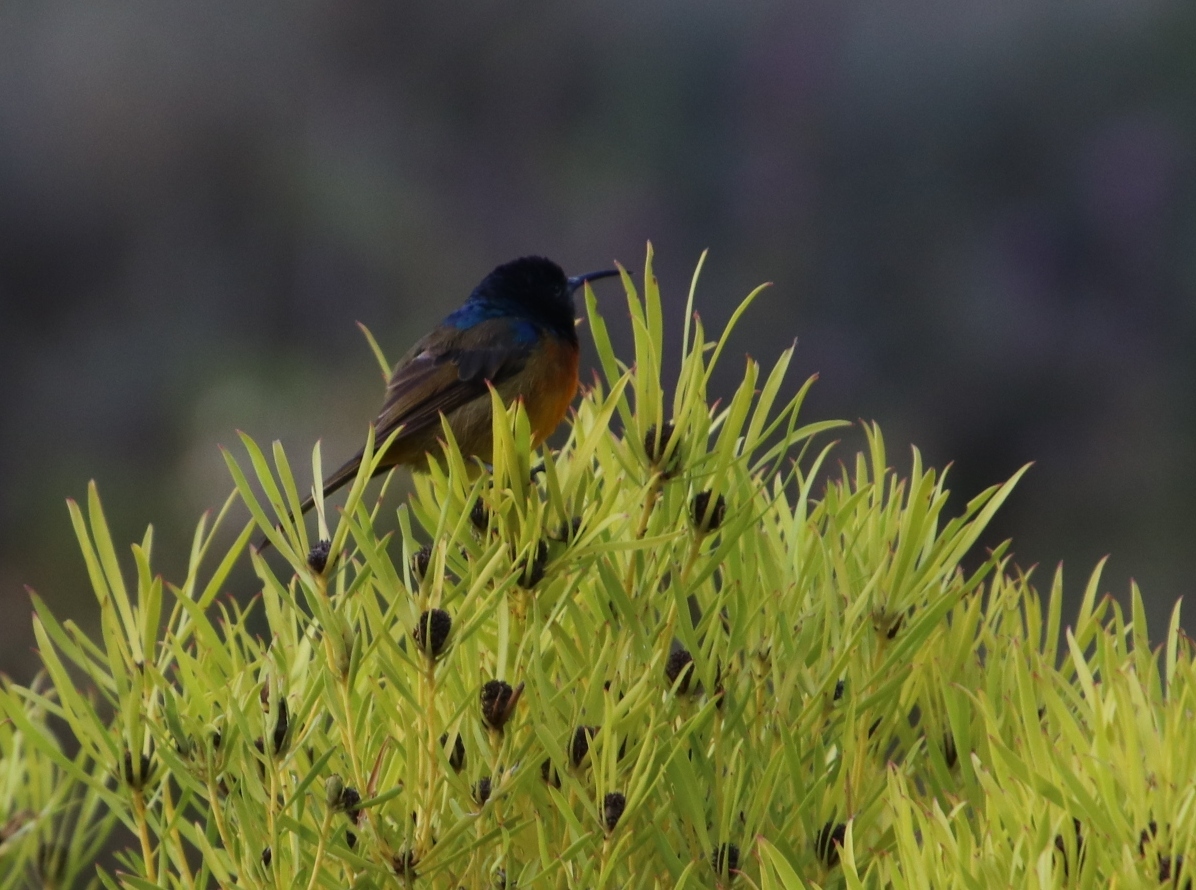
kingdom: Animalia
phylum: Chordata
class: Aves
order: Passeriformes
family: Nectariniidae
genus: Anthobaphes
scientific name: Anthobaphes violacea
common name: Orange-breasted sunbird
